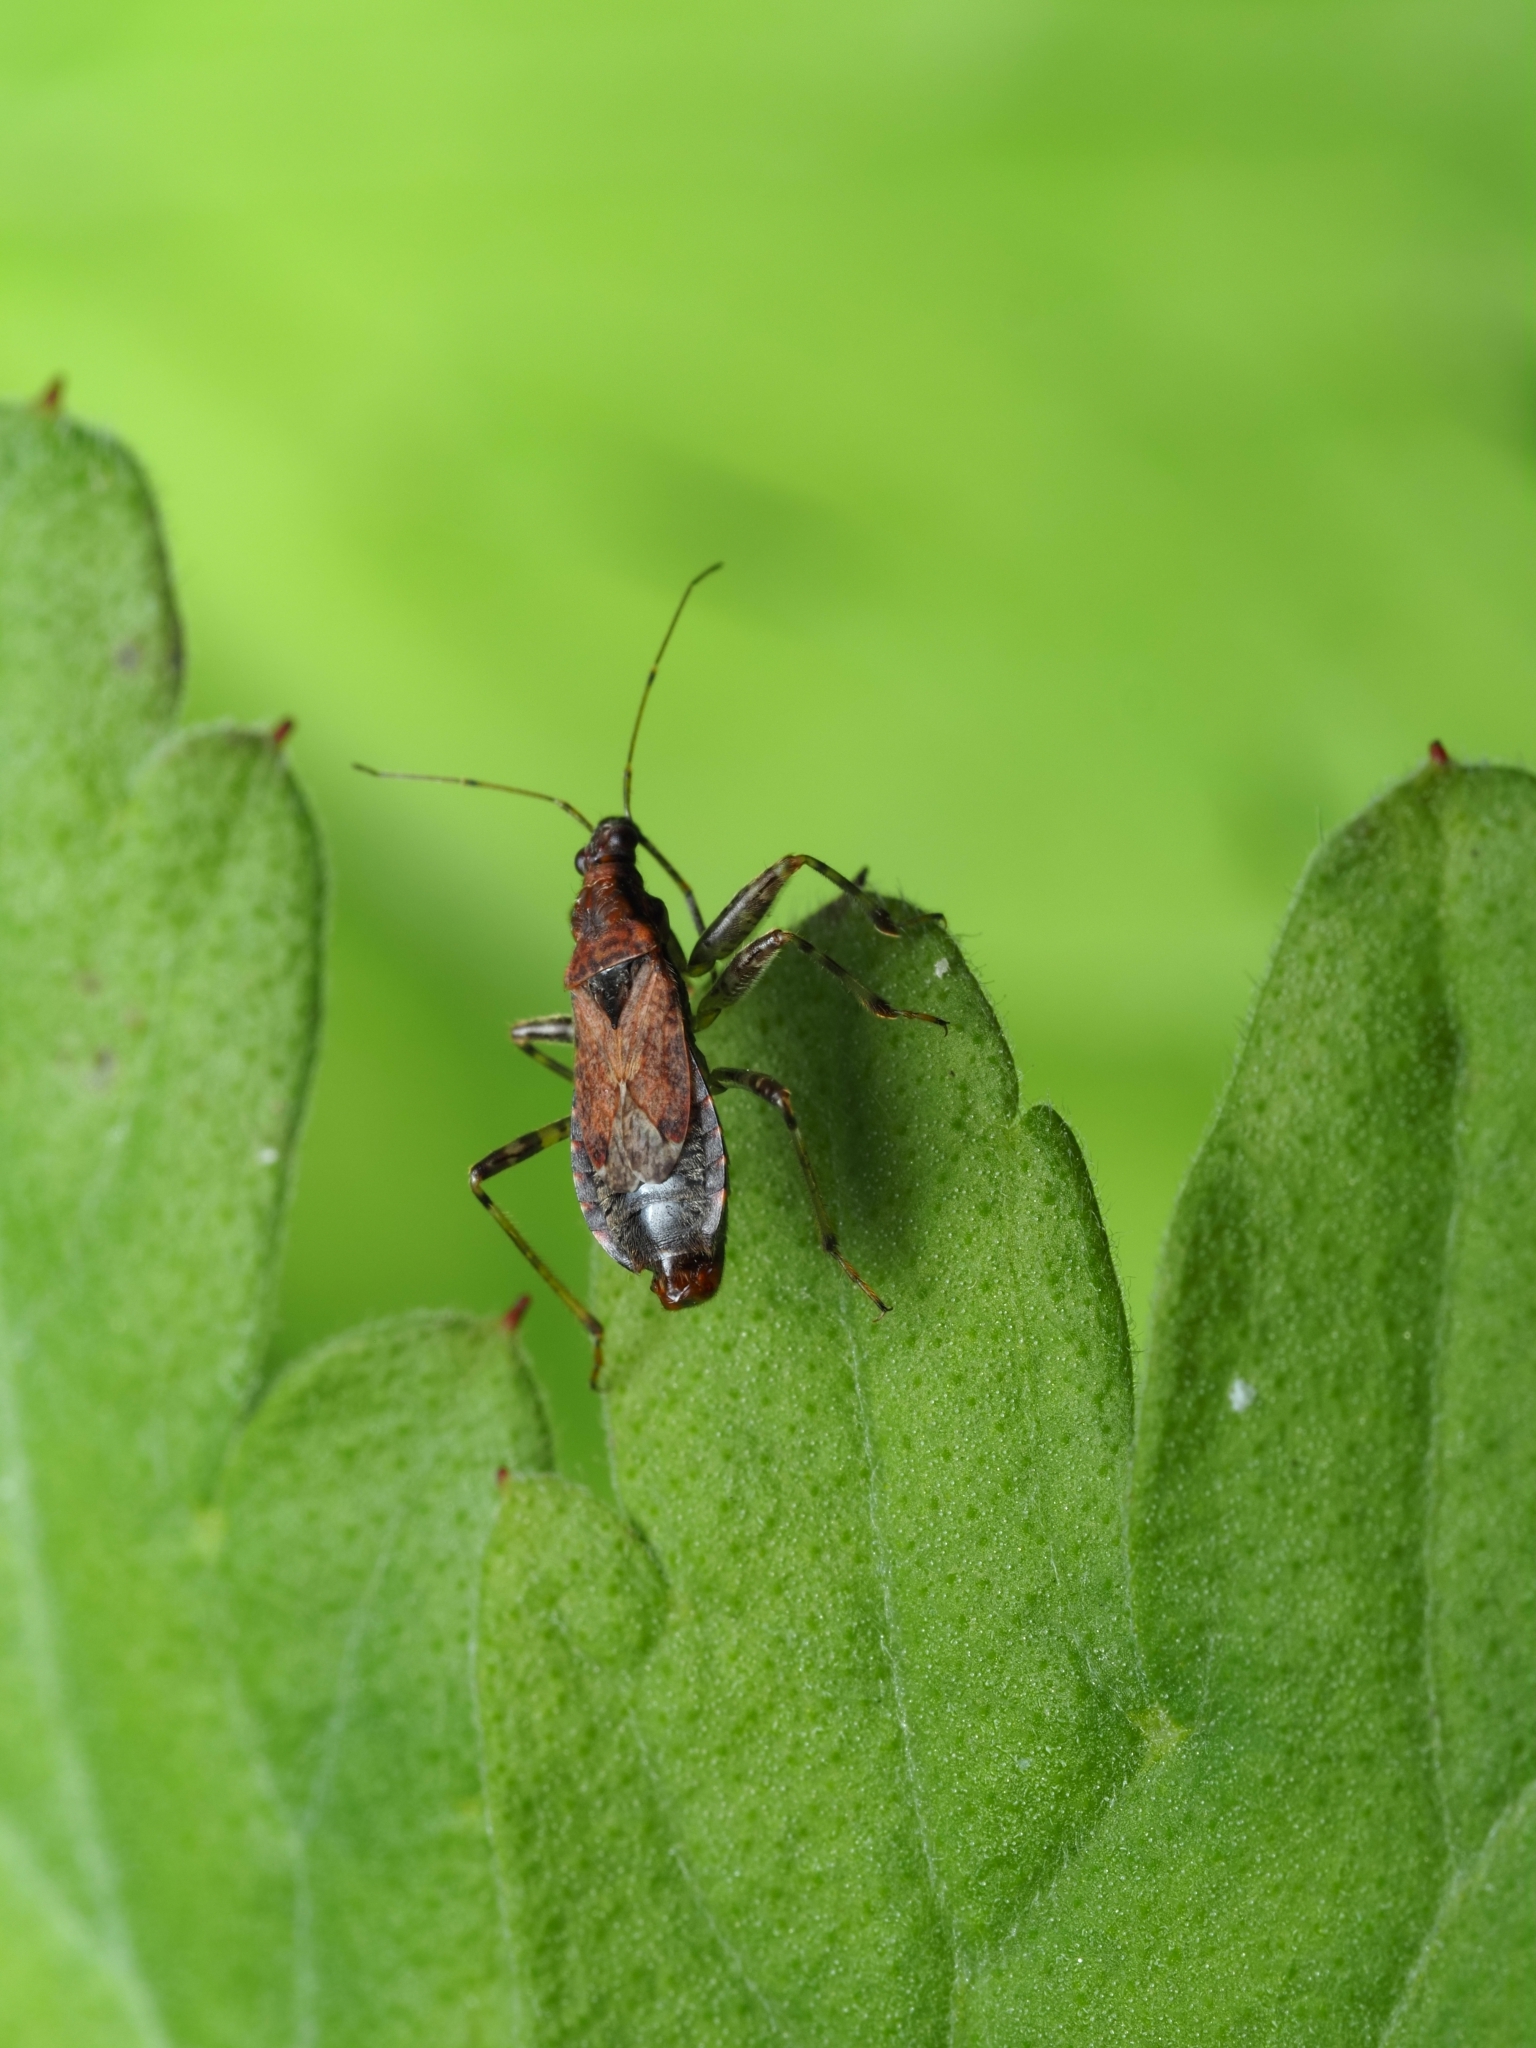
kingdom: Animalia
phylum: Arthropoda
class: Insecta
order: Hemiptera
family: Nabidae
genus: Himacerus
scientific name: Himacerus mirmicoides
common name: Ant damsel bug
